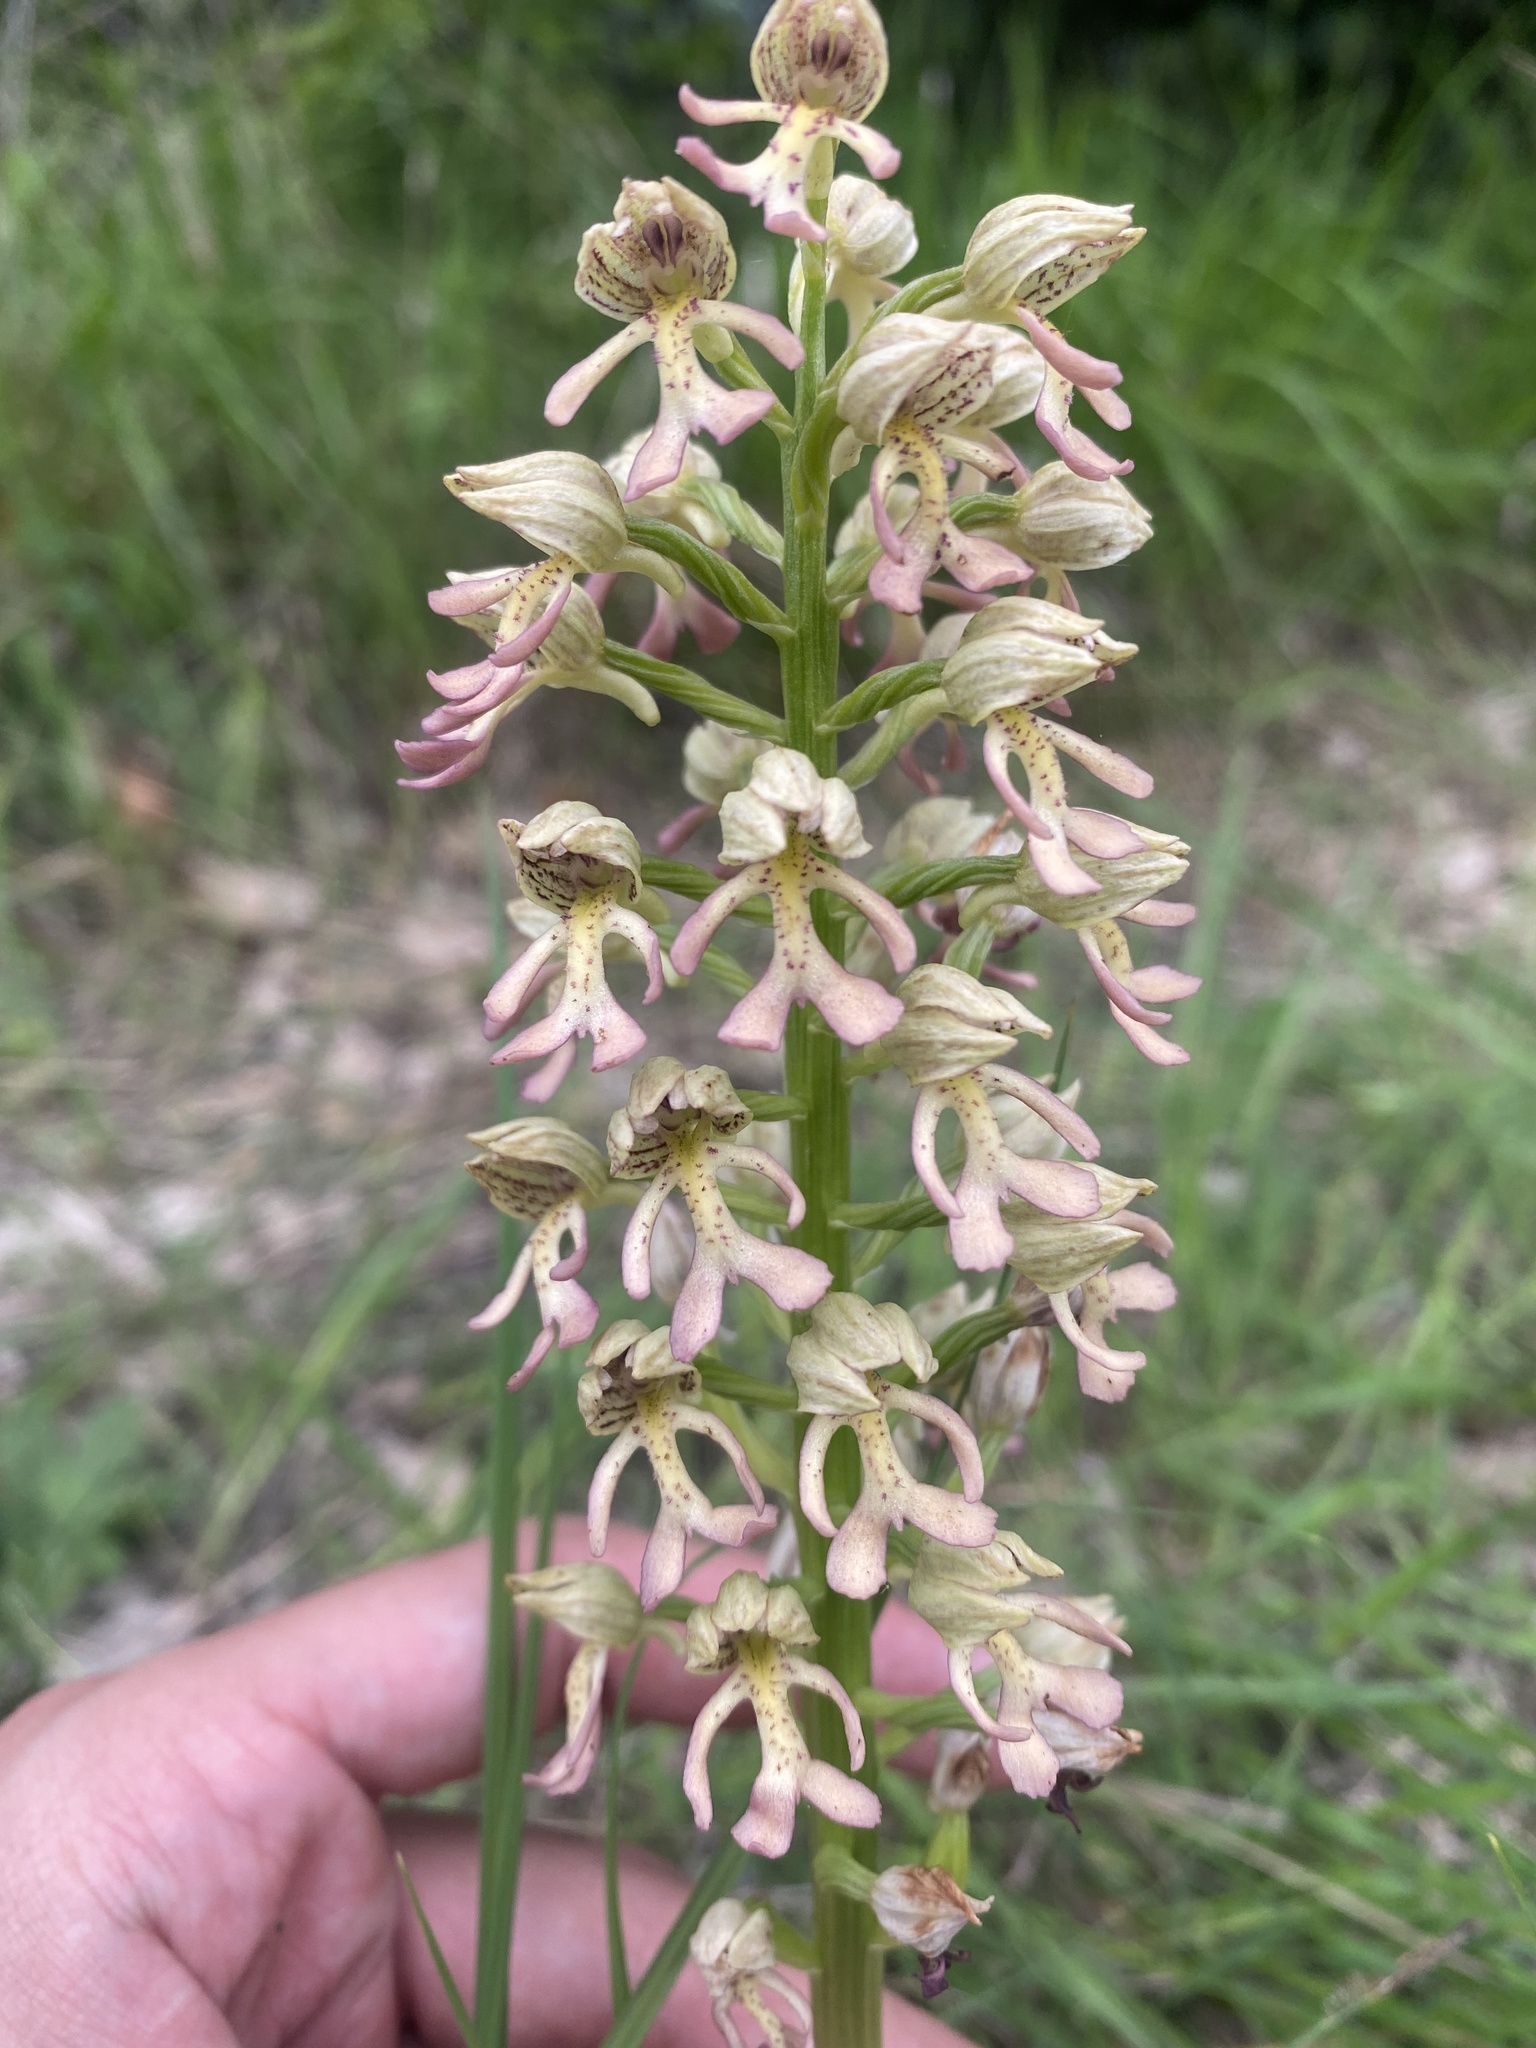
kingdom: Plantae
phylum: Tracheophyta
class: Liliopsida
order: Asparagales
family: Orchidaceae
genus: Orchis
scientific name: Orchis wulffiana
